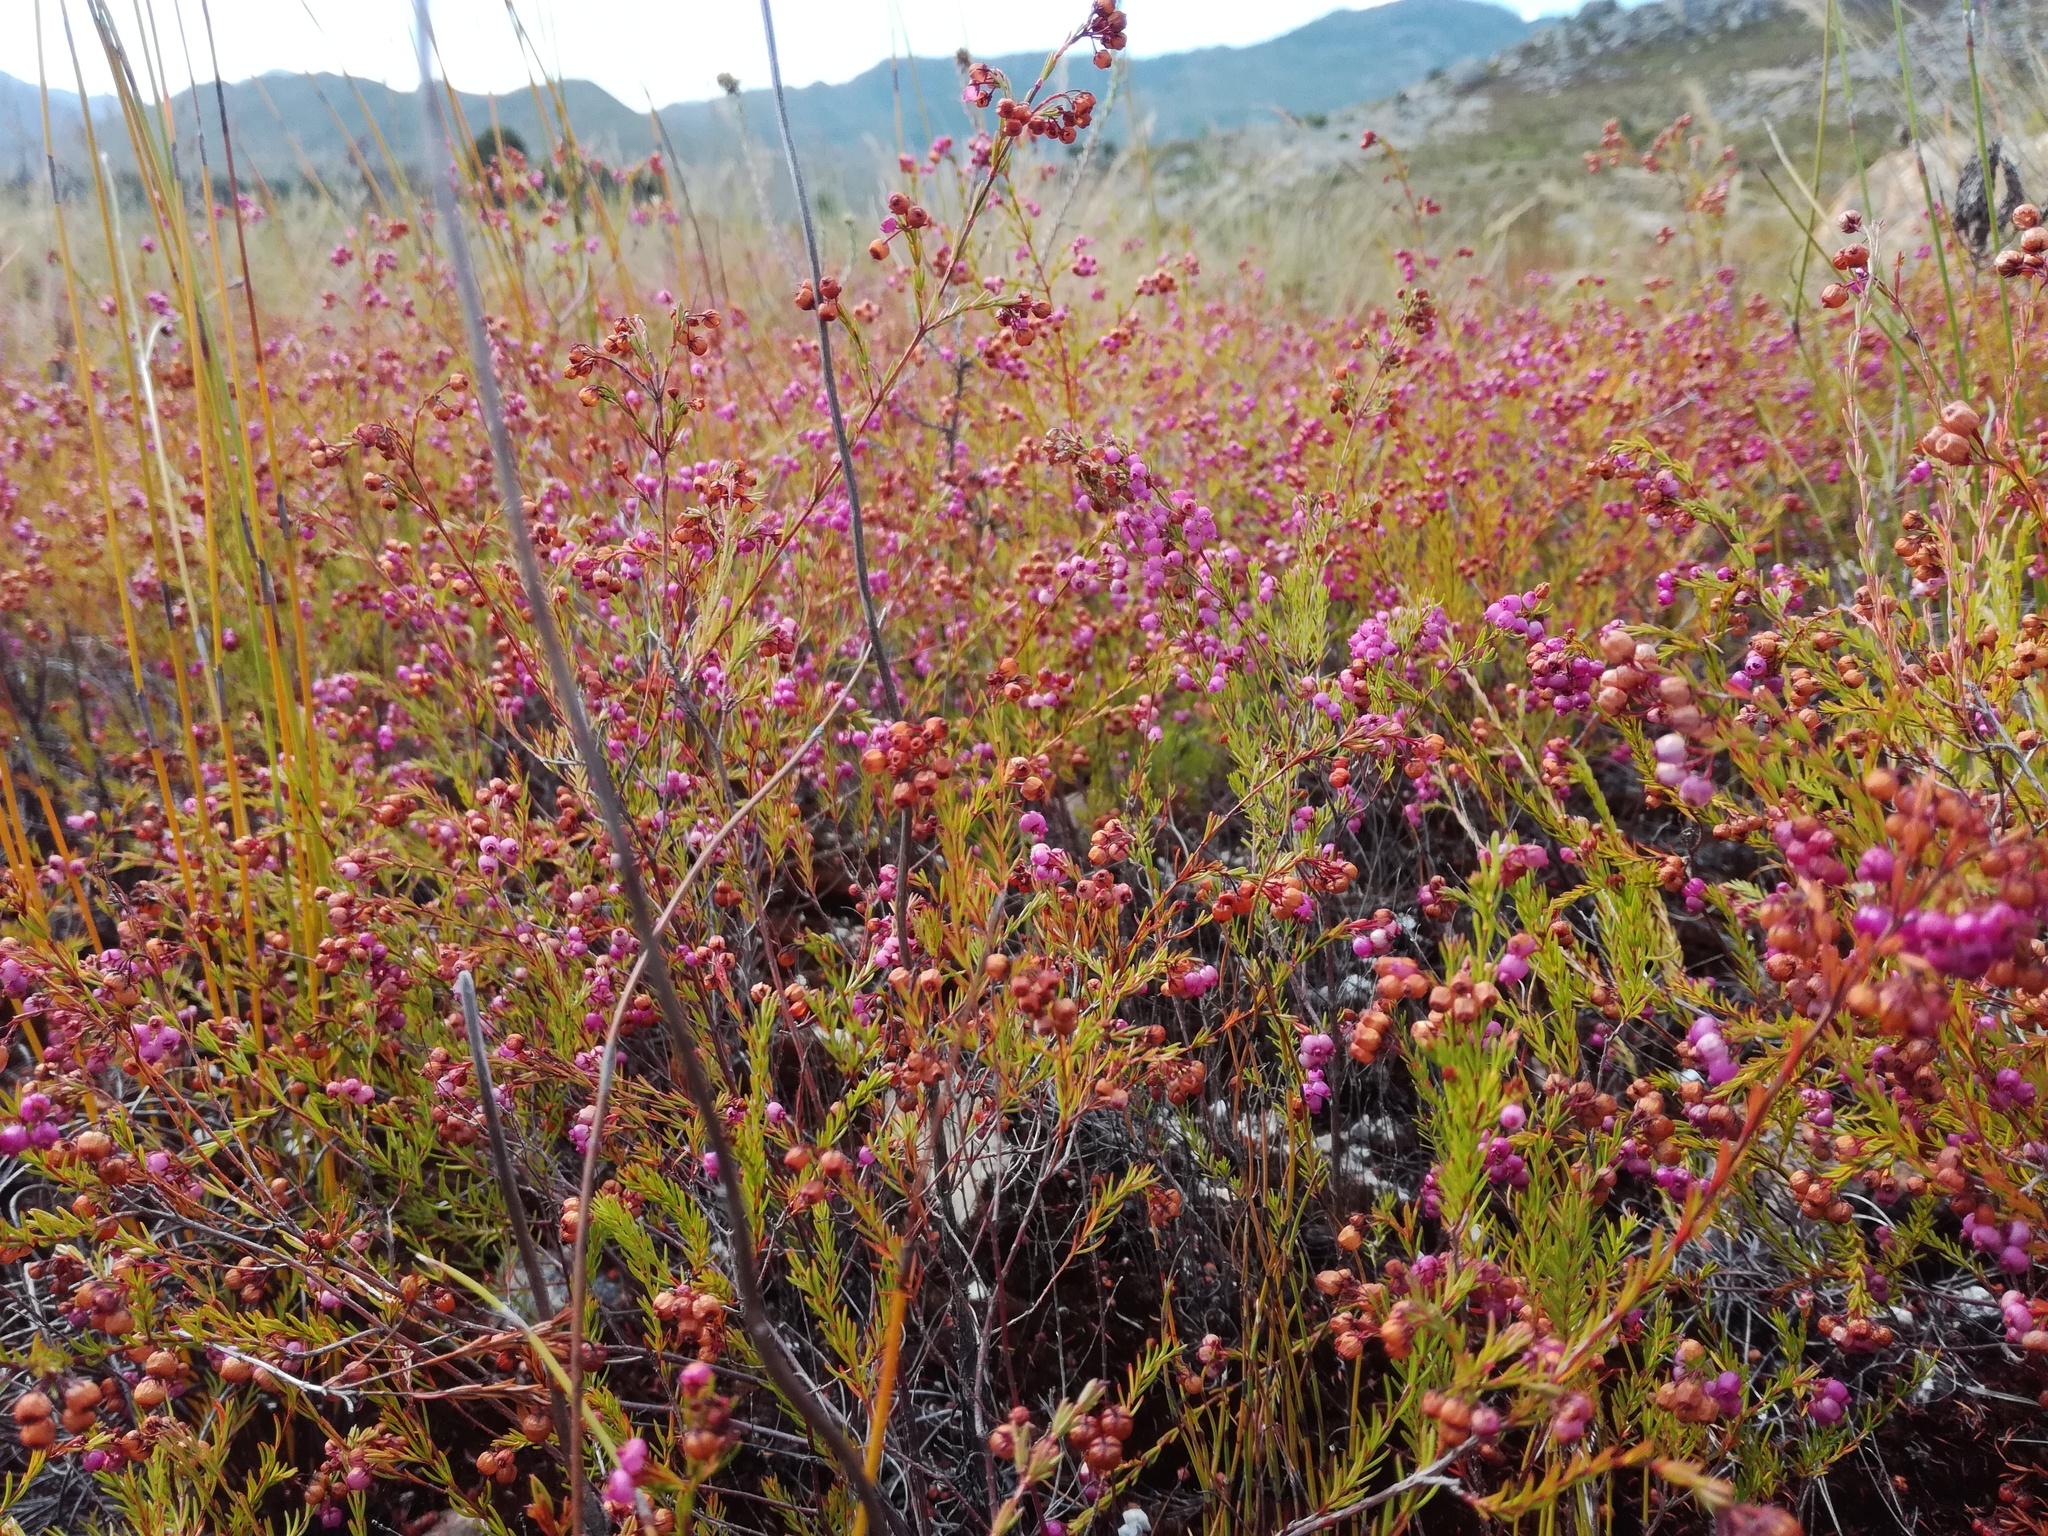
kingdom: Plantae
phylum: Tracheophyta
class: Magnoliopsida
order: Ericales
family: Ericaceae
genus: Erica
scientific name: Erica multumbellifera
